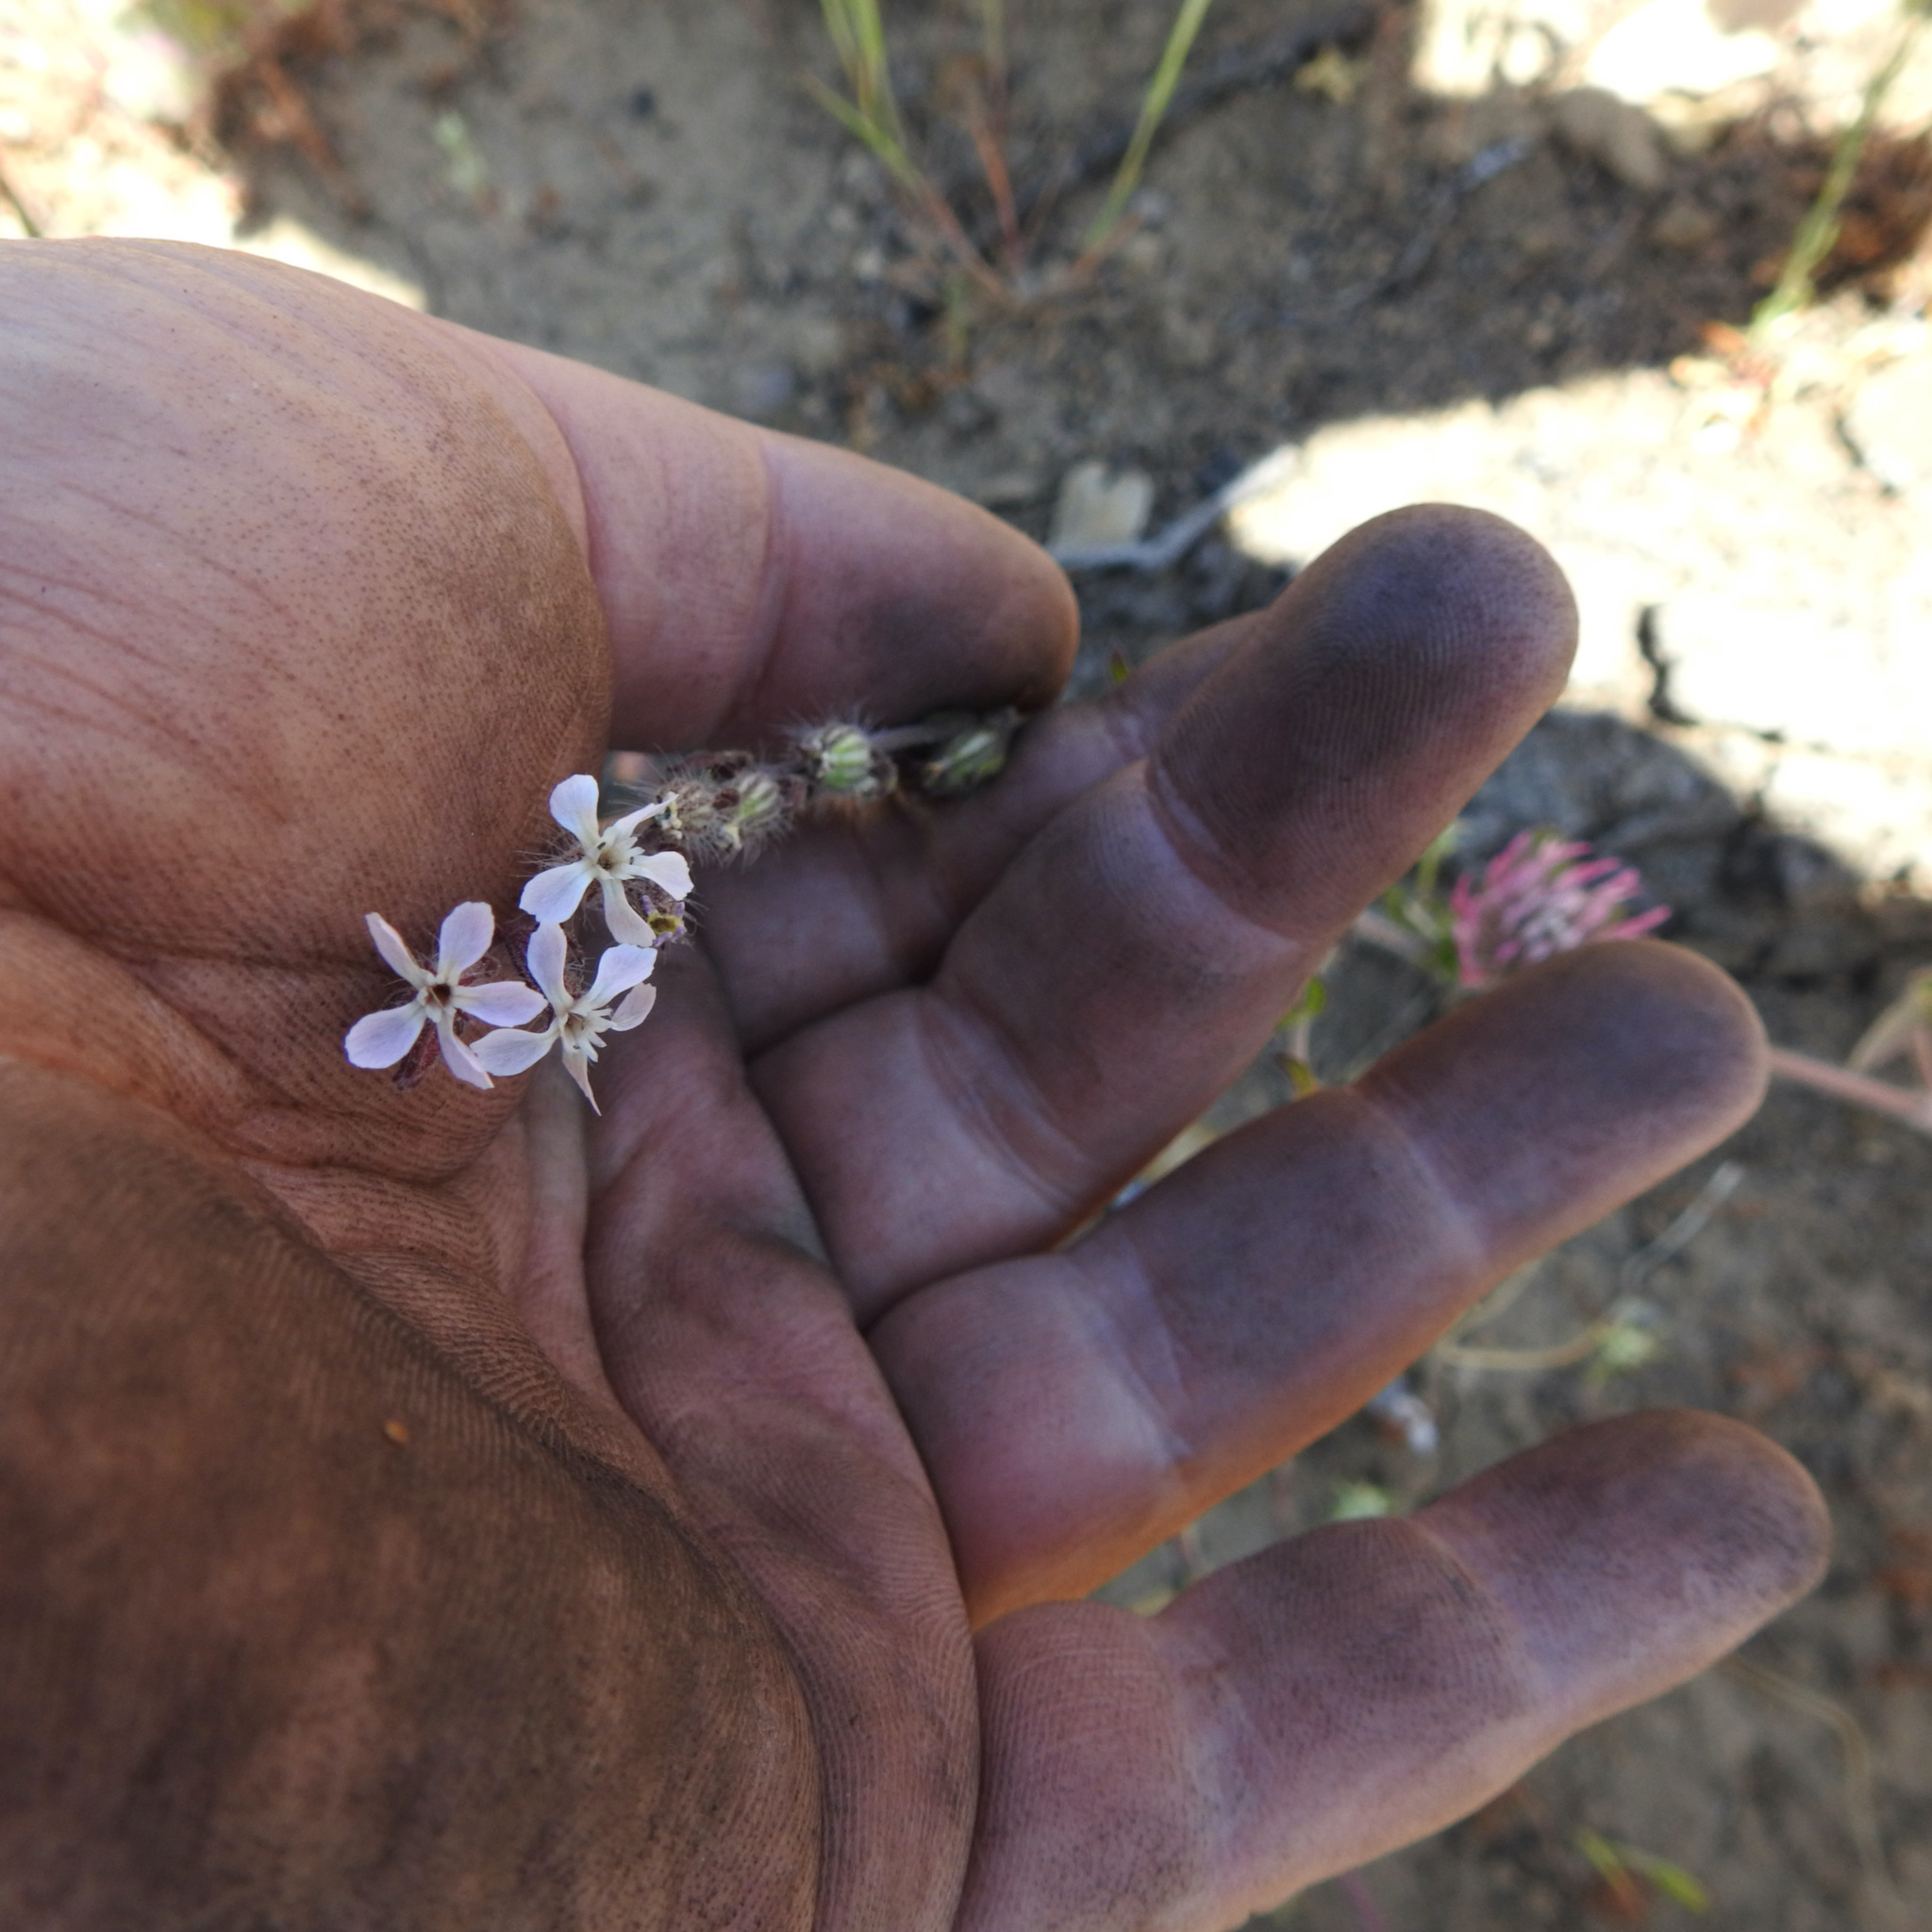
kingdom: Plantae
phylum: Tracheophyta
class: Magnoliopsida
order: Caryophyllales
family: Caryophyllaceae
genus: Silene
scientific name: Silene gallica
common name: Small-flowered catchfly
